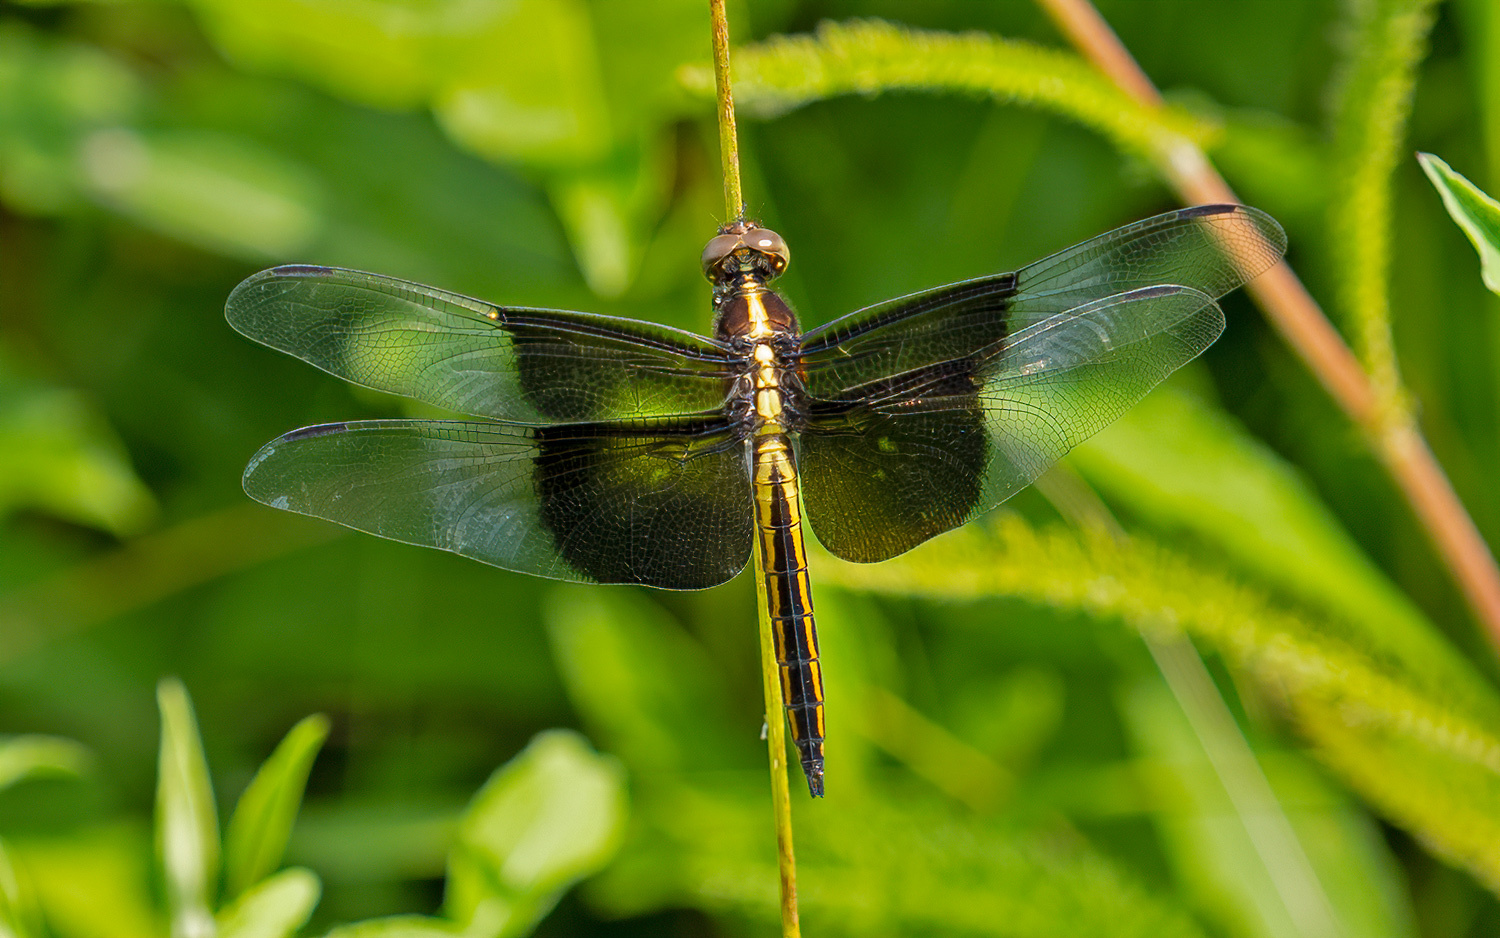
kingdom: Animalia
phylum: Arthropoda
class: Insecta
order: Odonata
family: Libellulidae
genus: Libellula
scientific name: Libellula luctuosa
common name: Widow skimmer
